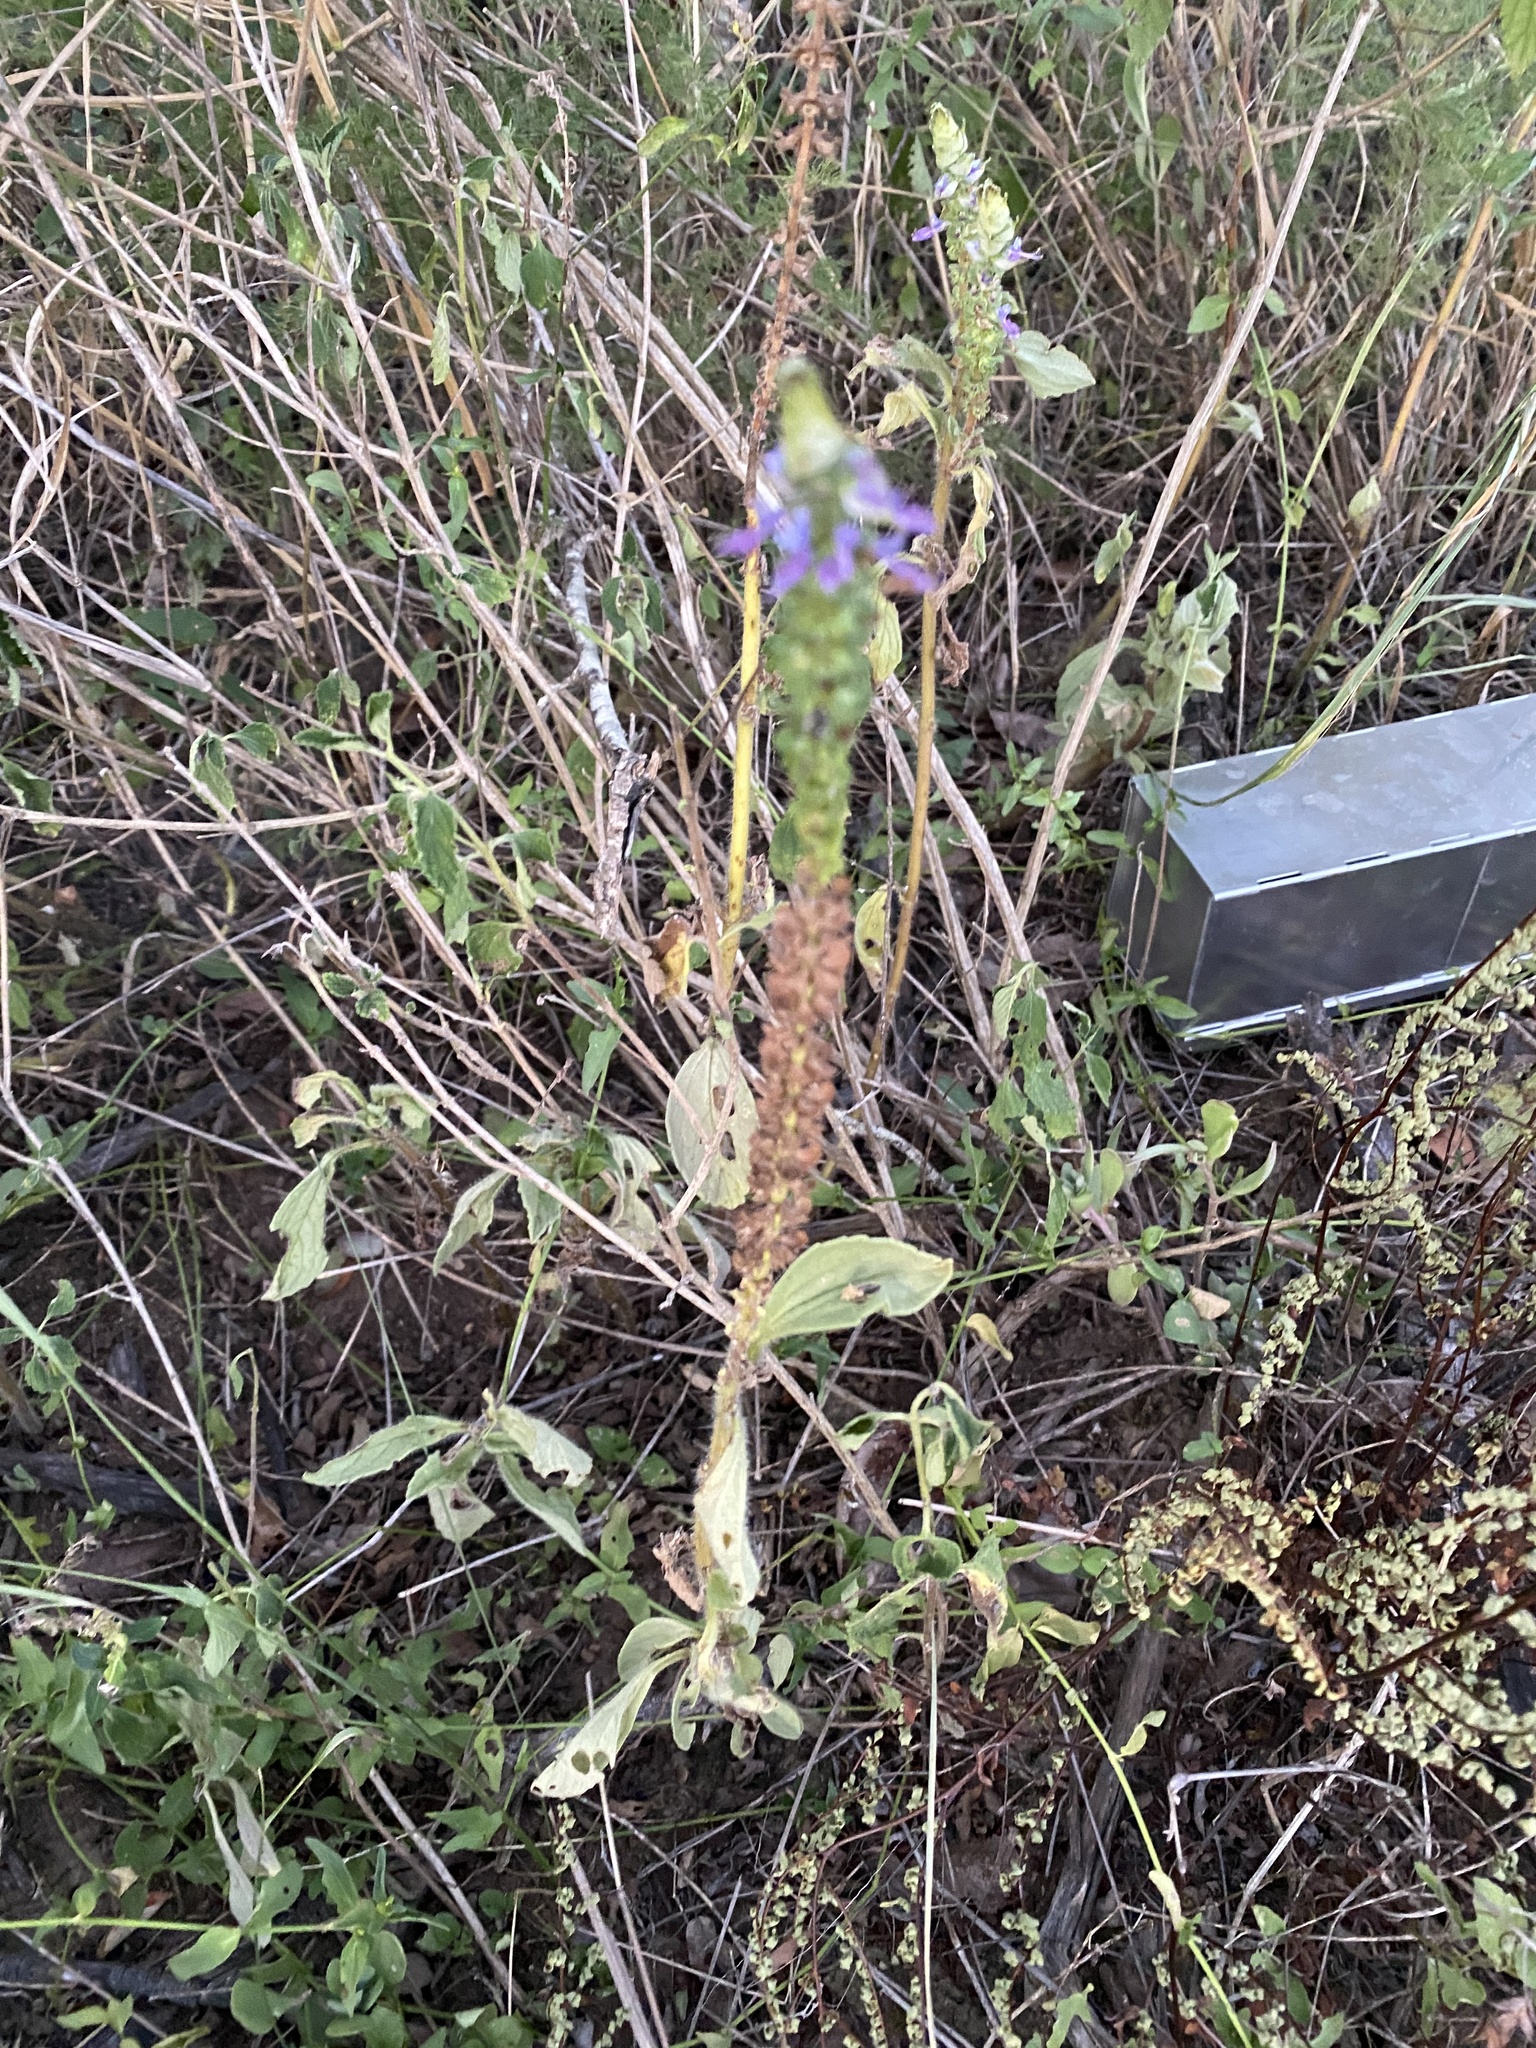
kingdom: Plantae
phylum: Tracheophyta
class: Magnoliopsida
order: Lamiales
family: Lamiaceae
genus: Coleus
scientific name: Coleus neochilus
